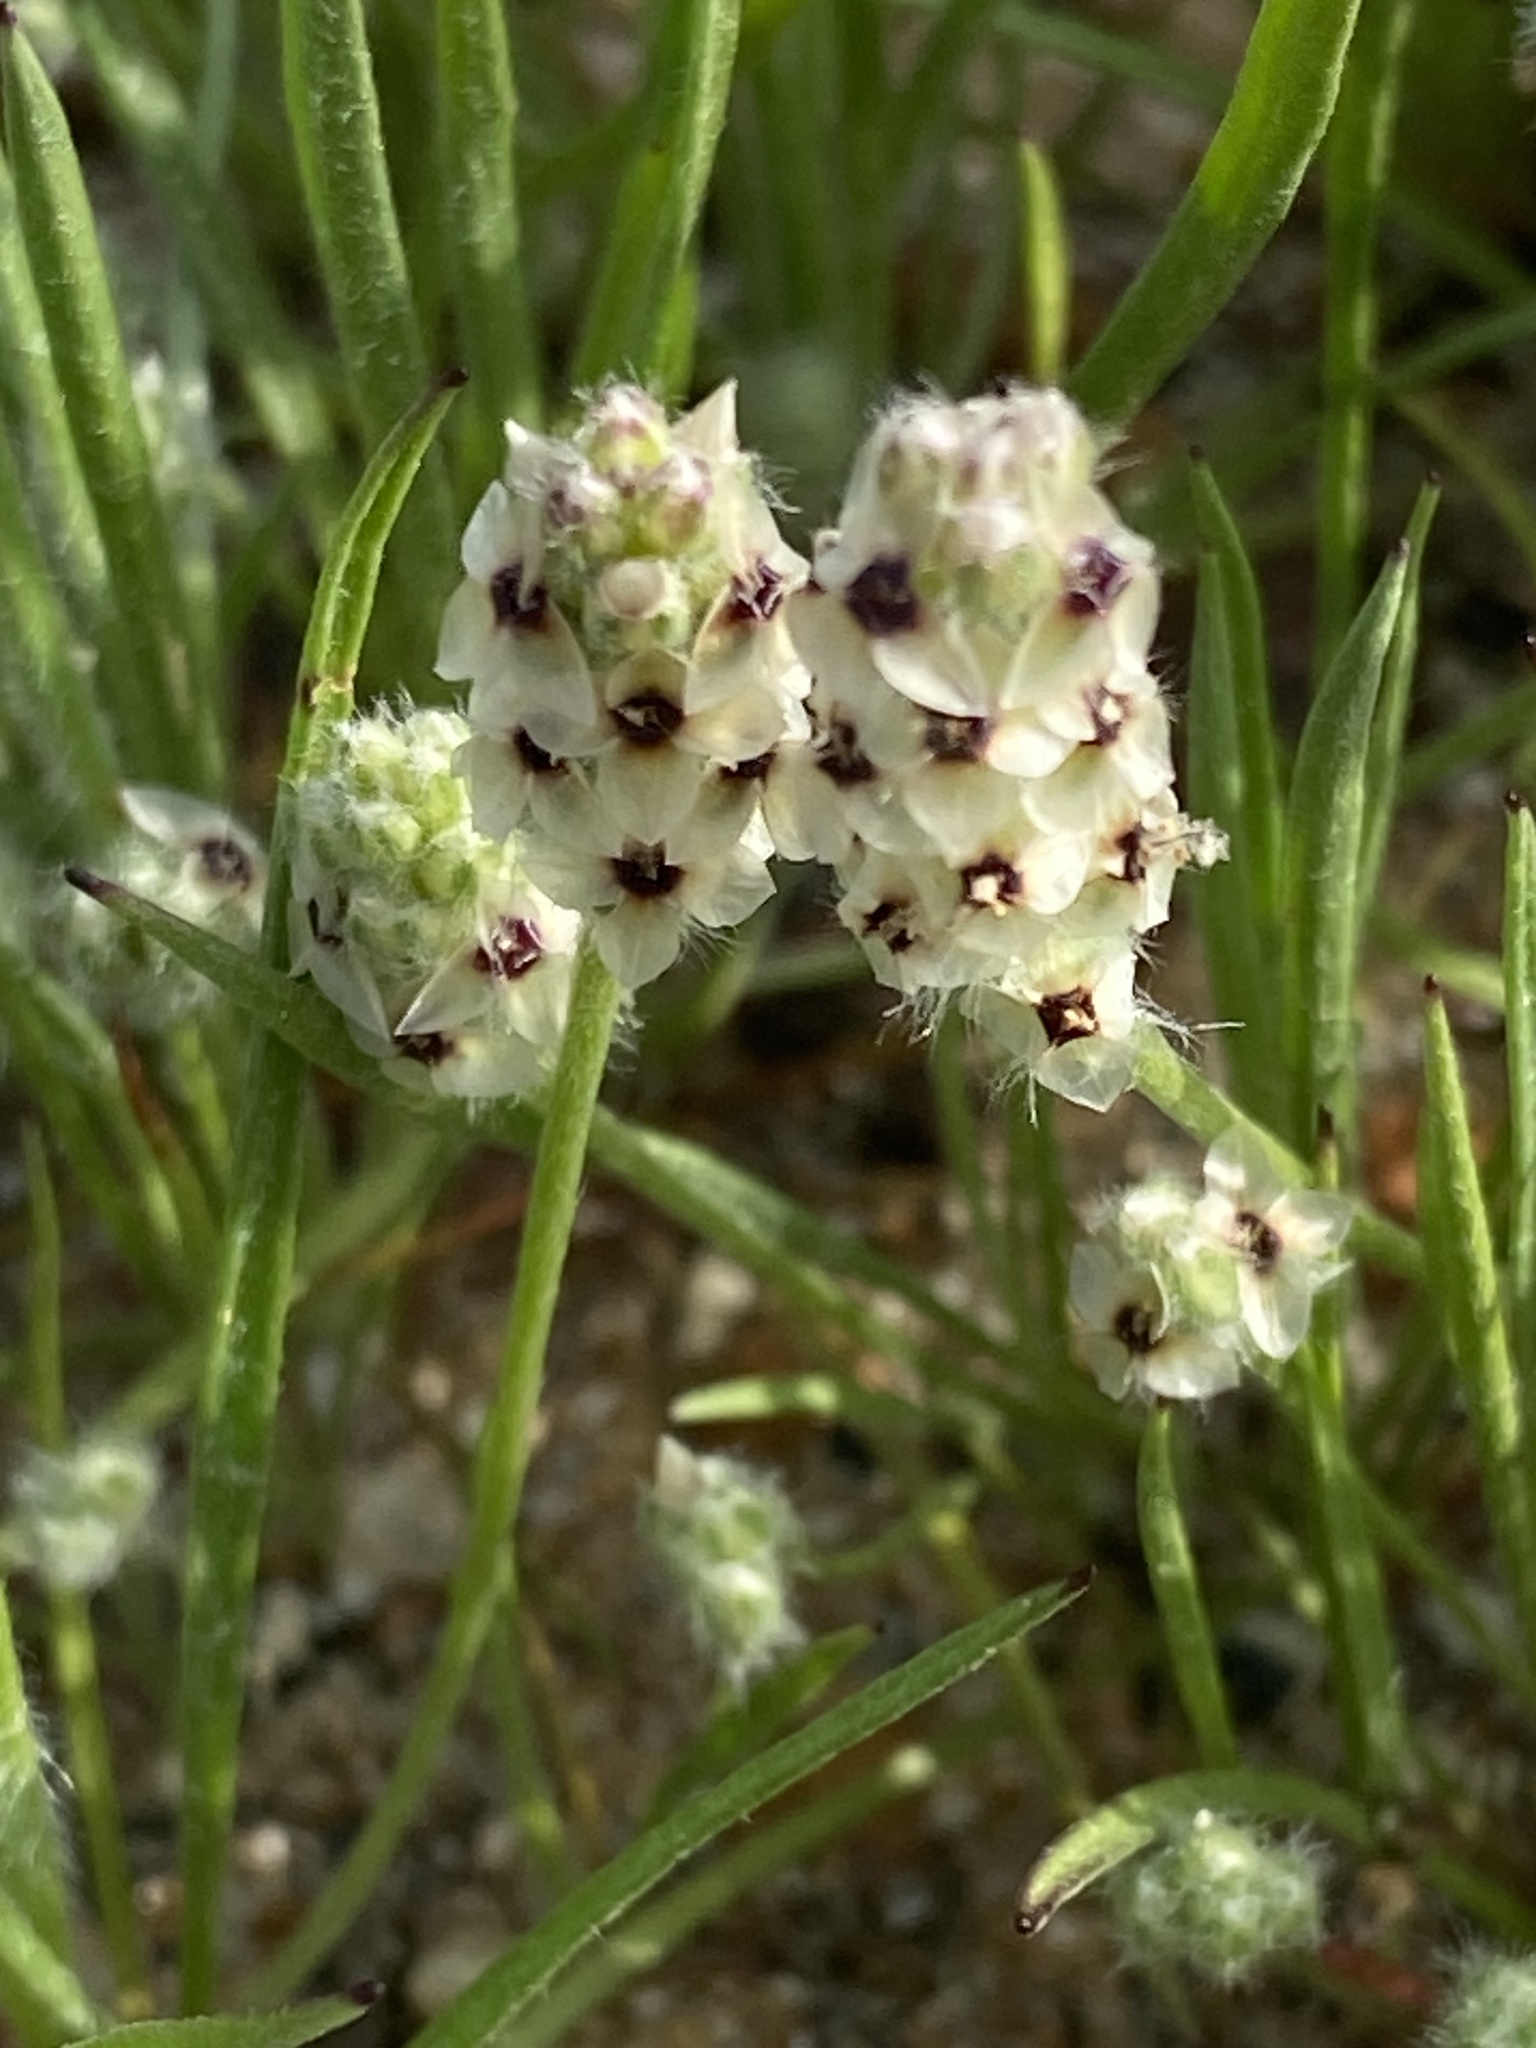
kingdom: Plantae
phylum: Tracheophyta
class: Magnoliopsida
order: Lamiales
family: Plantaginaceae
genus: Plantago
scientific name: Plantago erecta
